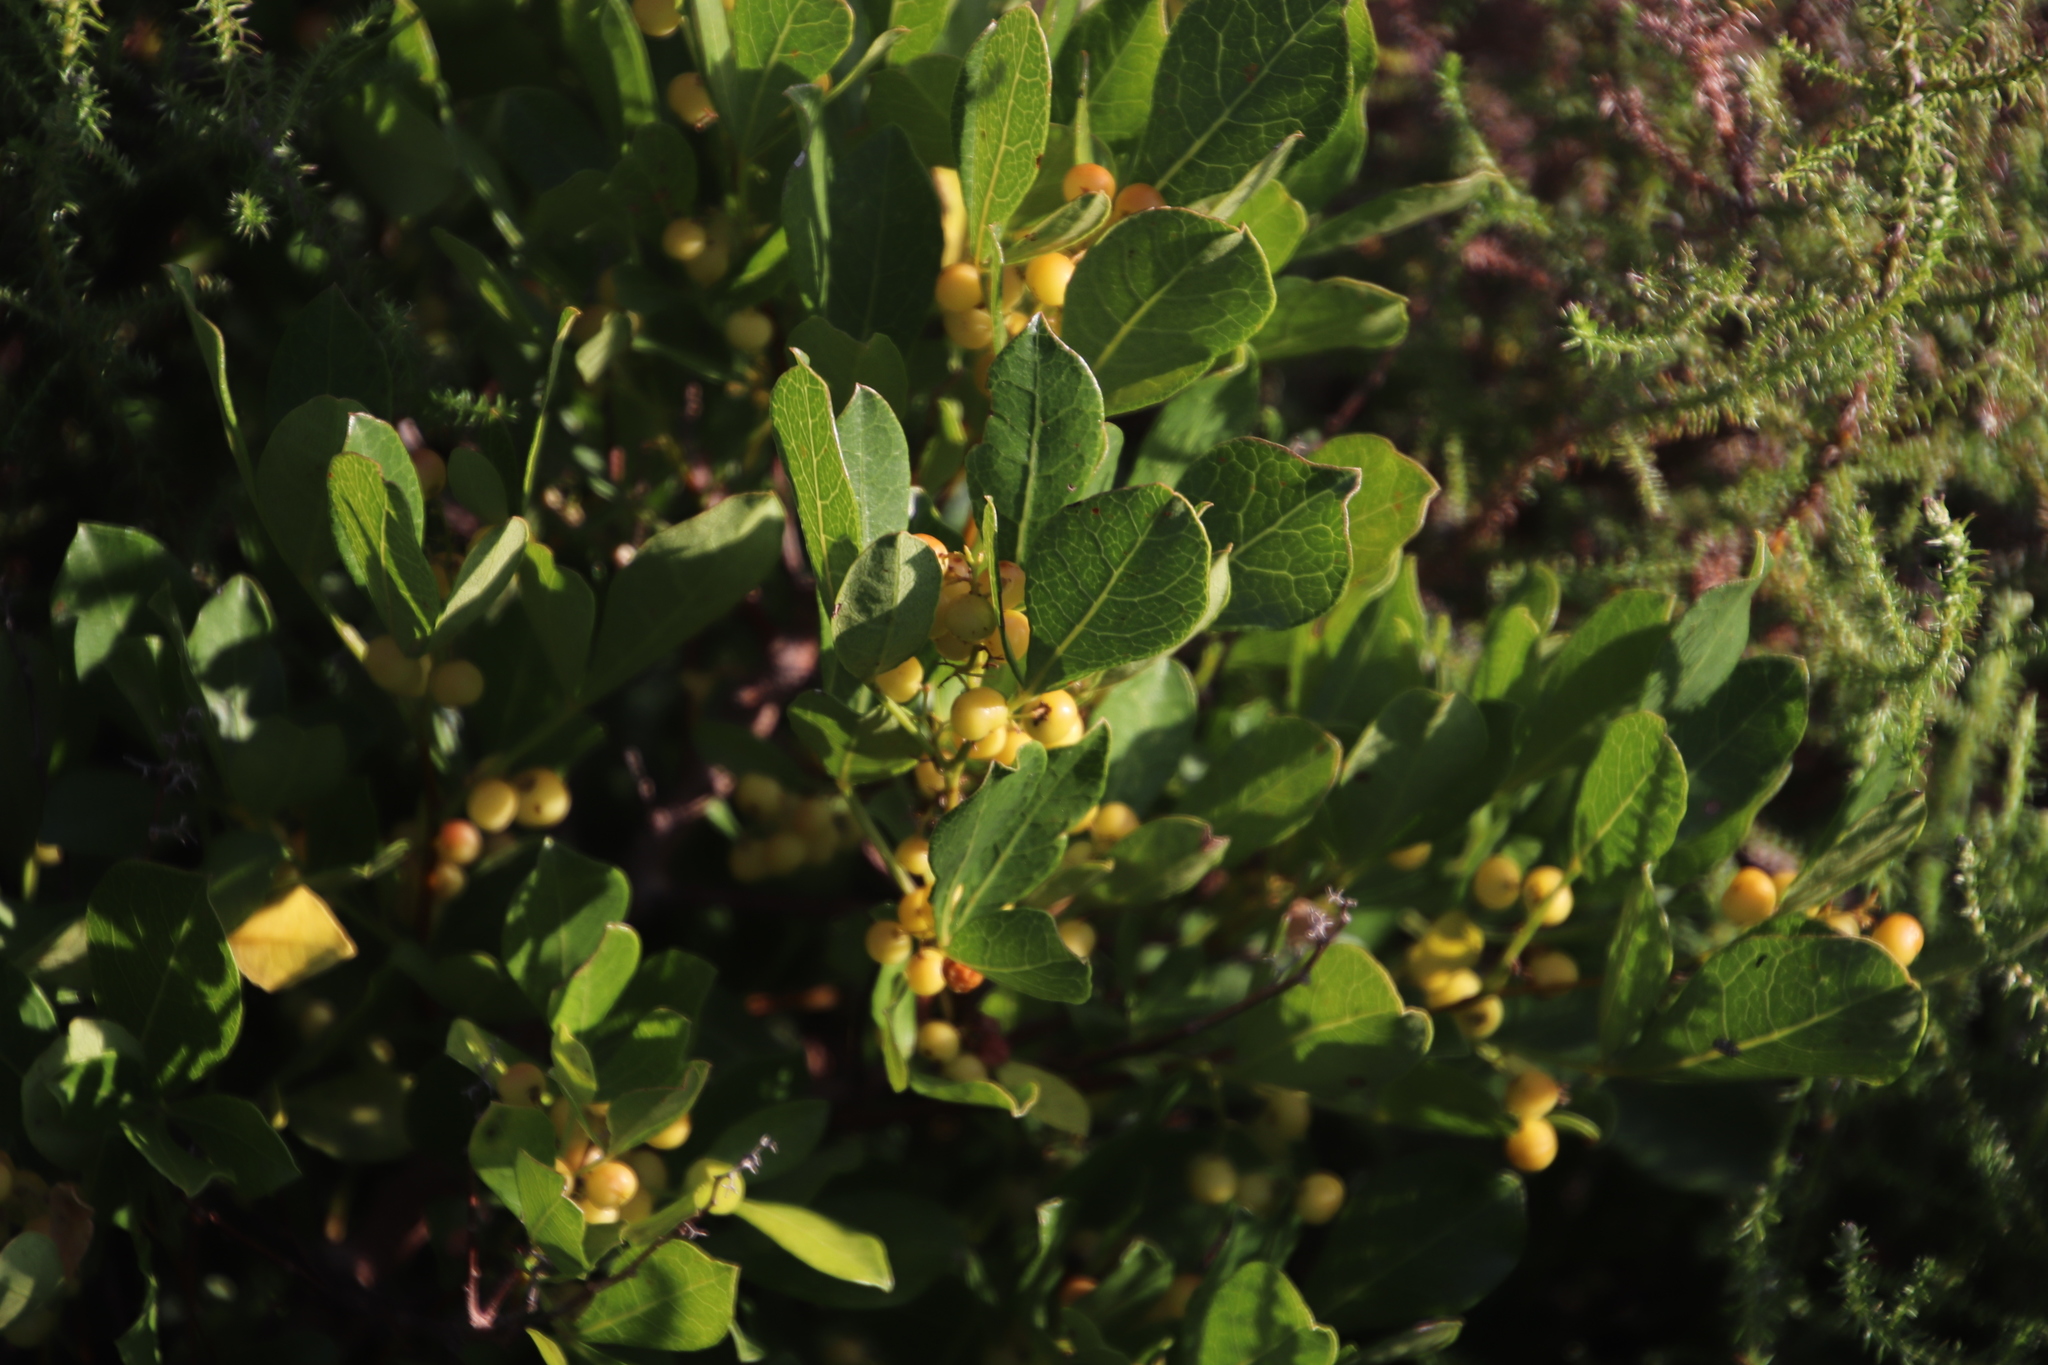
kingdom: Plantae
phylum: Tracheophyta
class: Magnoliopsida
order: Sapindales
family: Anacardiaceae
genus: Searsia
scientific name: Searsia laevigata
